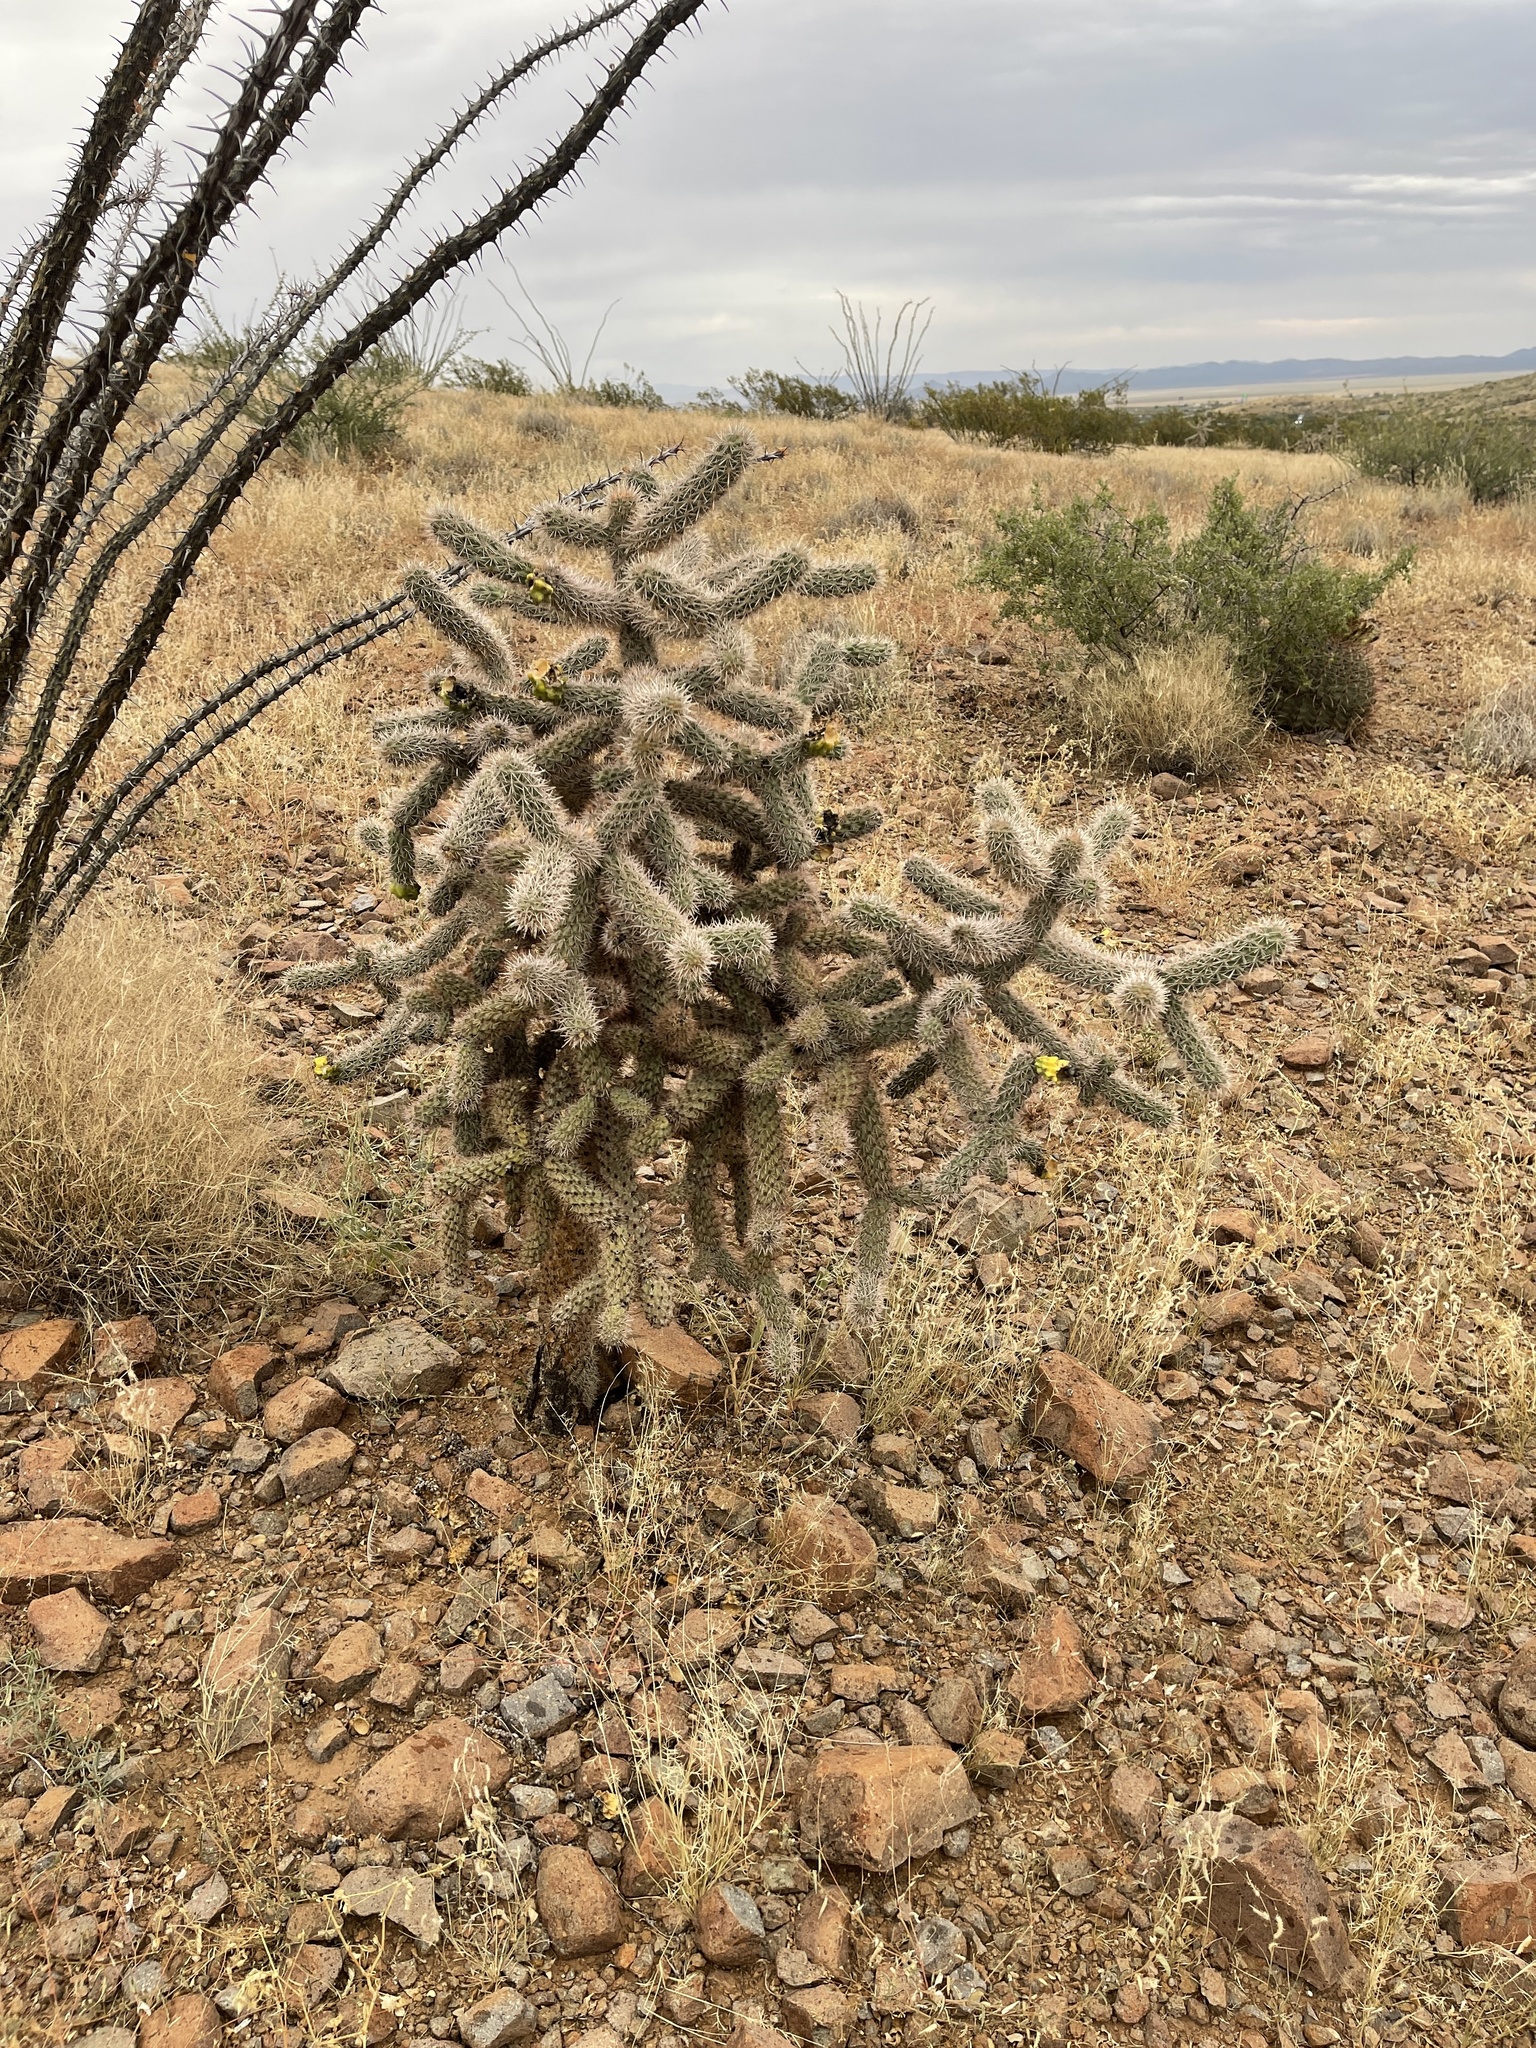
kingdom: Plantae
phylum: Tracheophyta
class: Magnoliopsida
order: Caryophyllales
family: Cactaceae
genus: Cylindropuntia
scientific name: Cylindropuntia imbricata
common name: Candelabrum cactus
